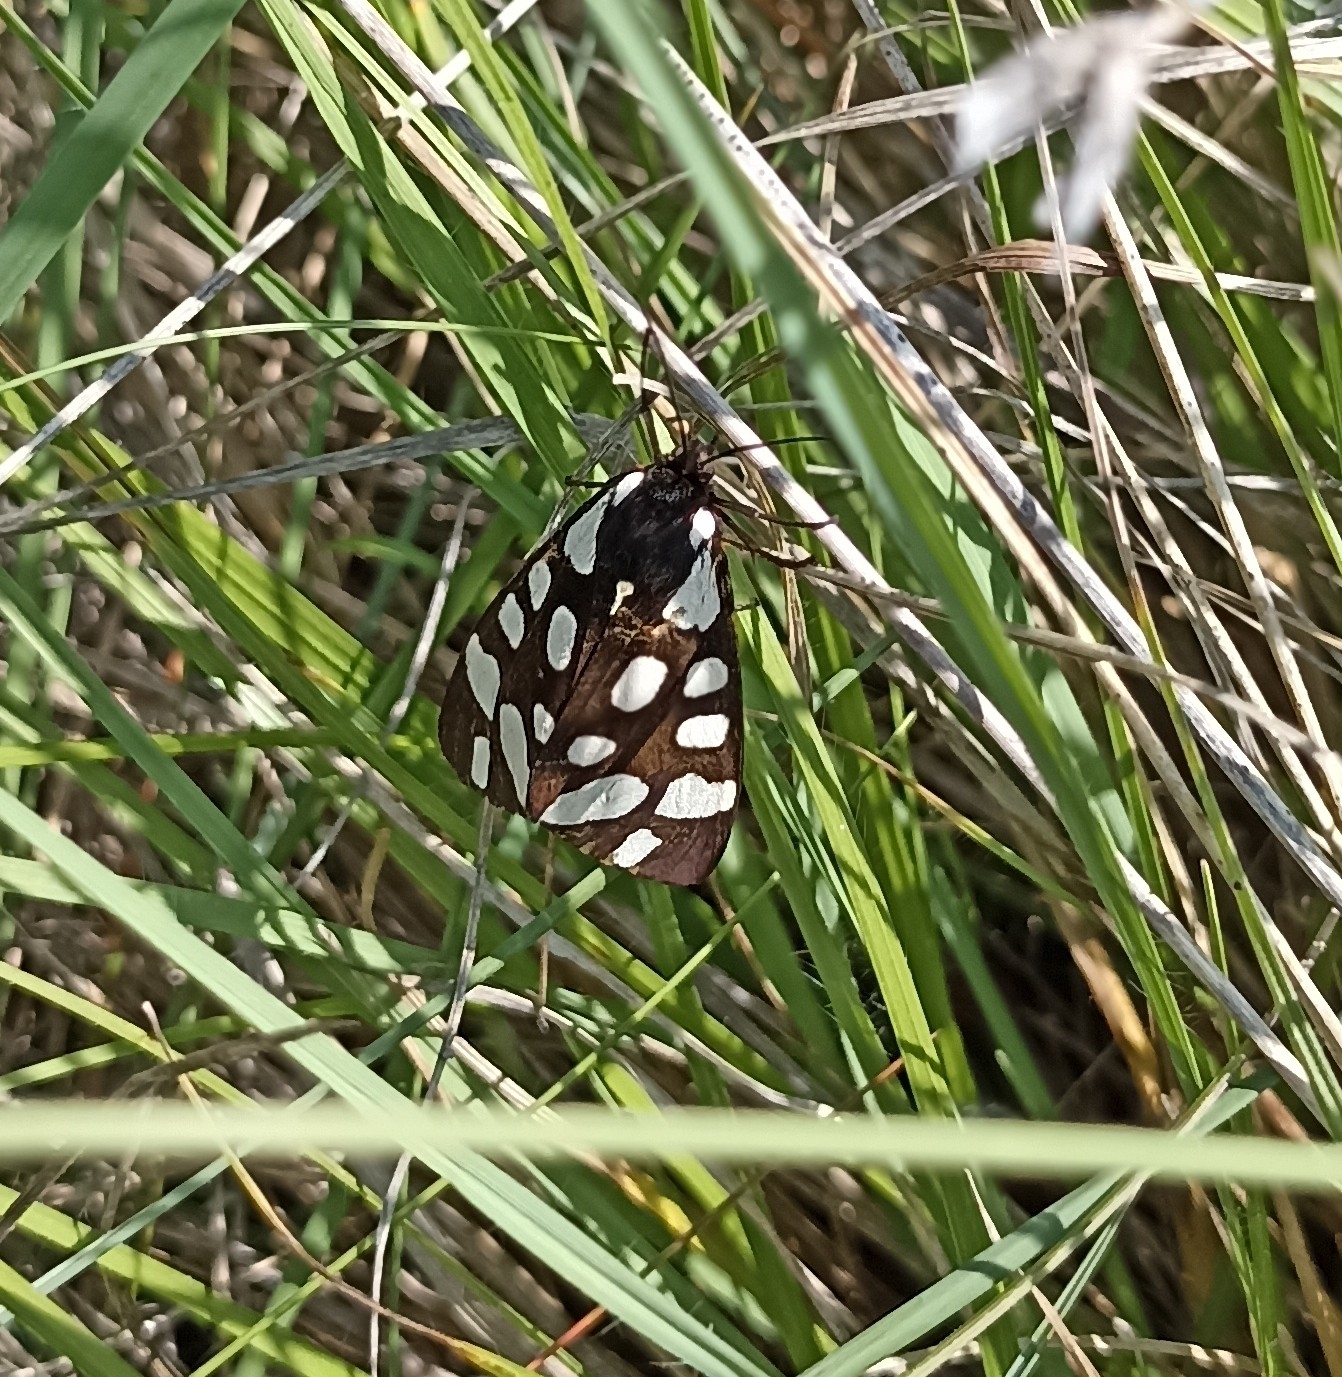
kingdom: Animalia
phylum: Arthropoda
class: Insecta
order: Lepidoptera
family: Erebidae
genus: Epicallia
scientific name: Epicallia villica
